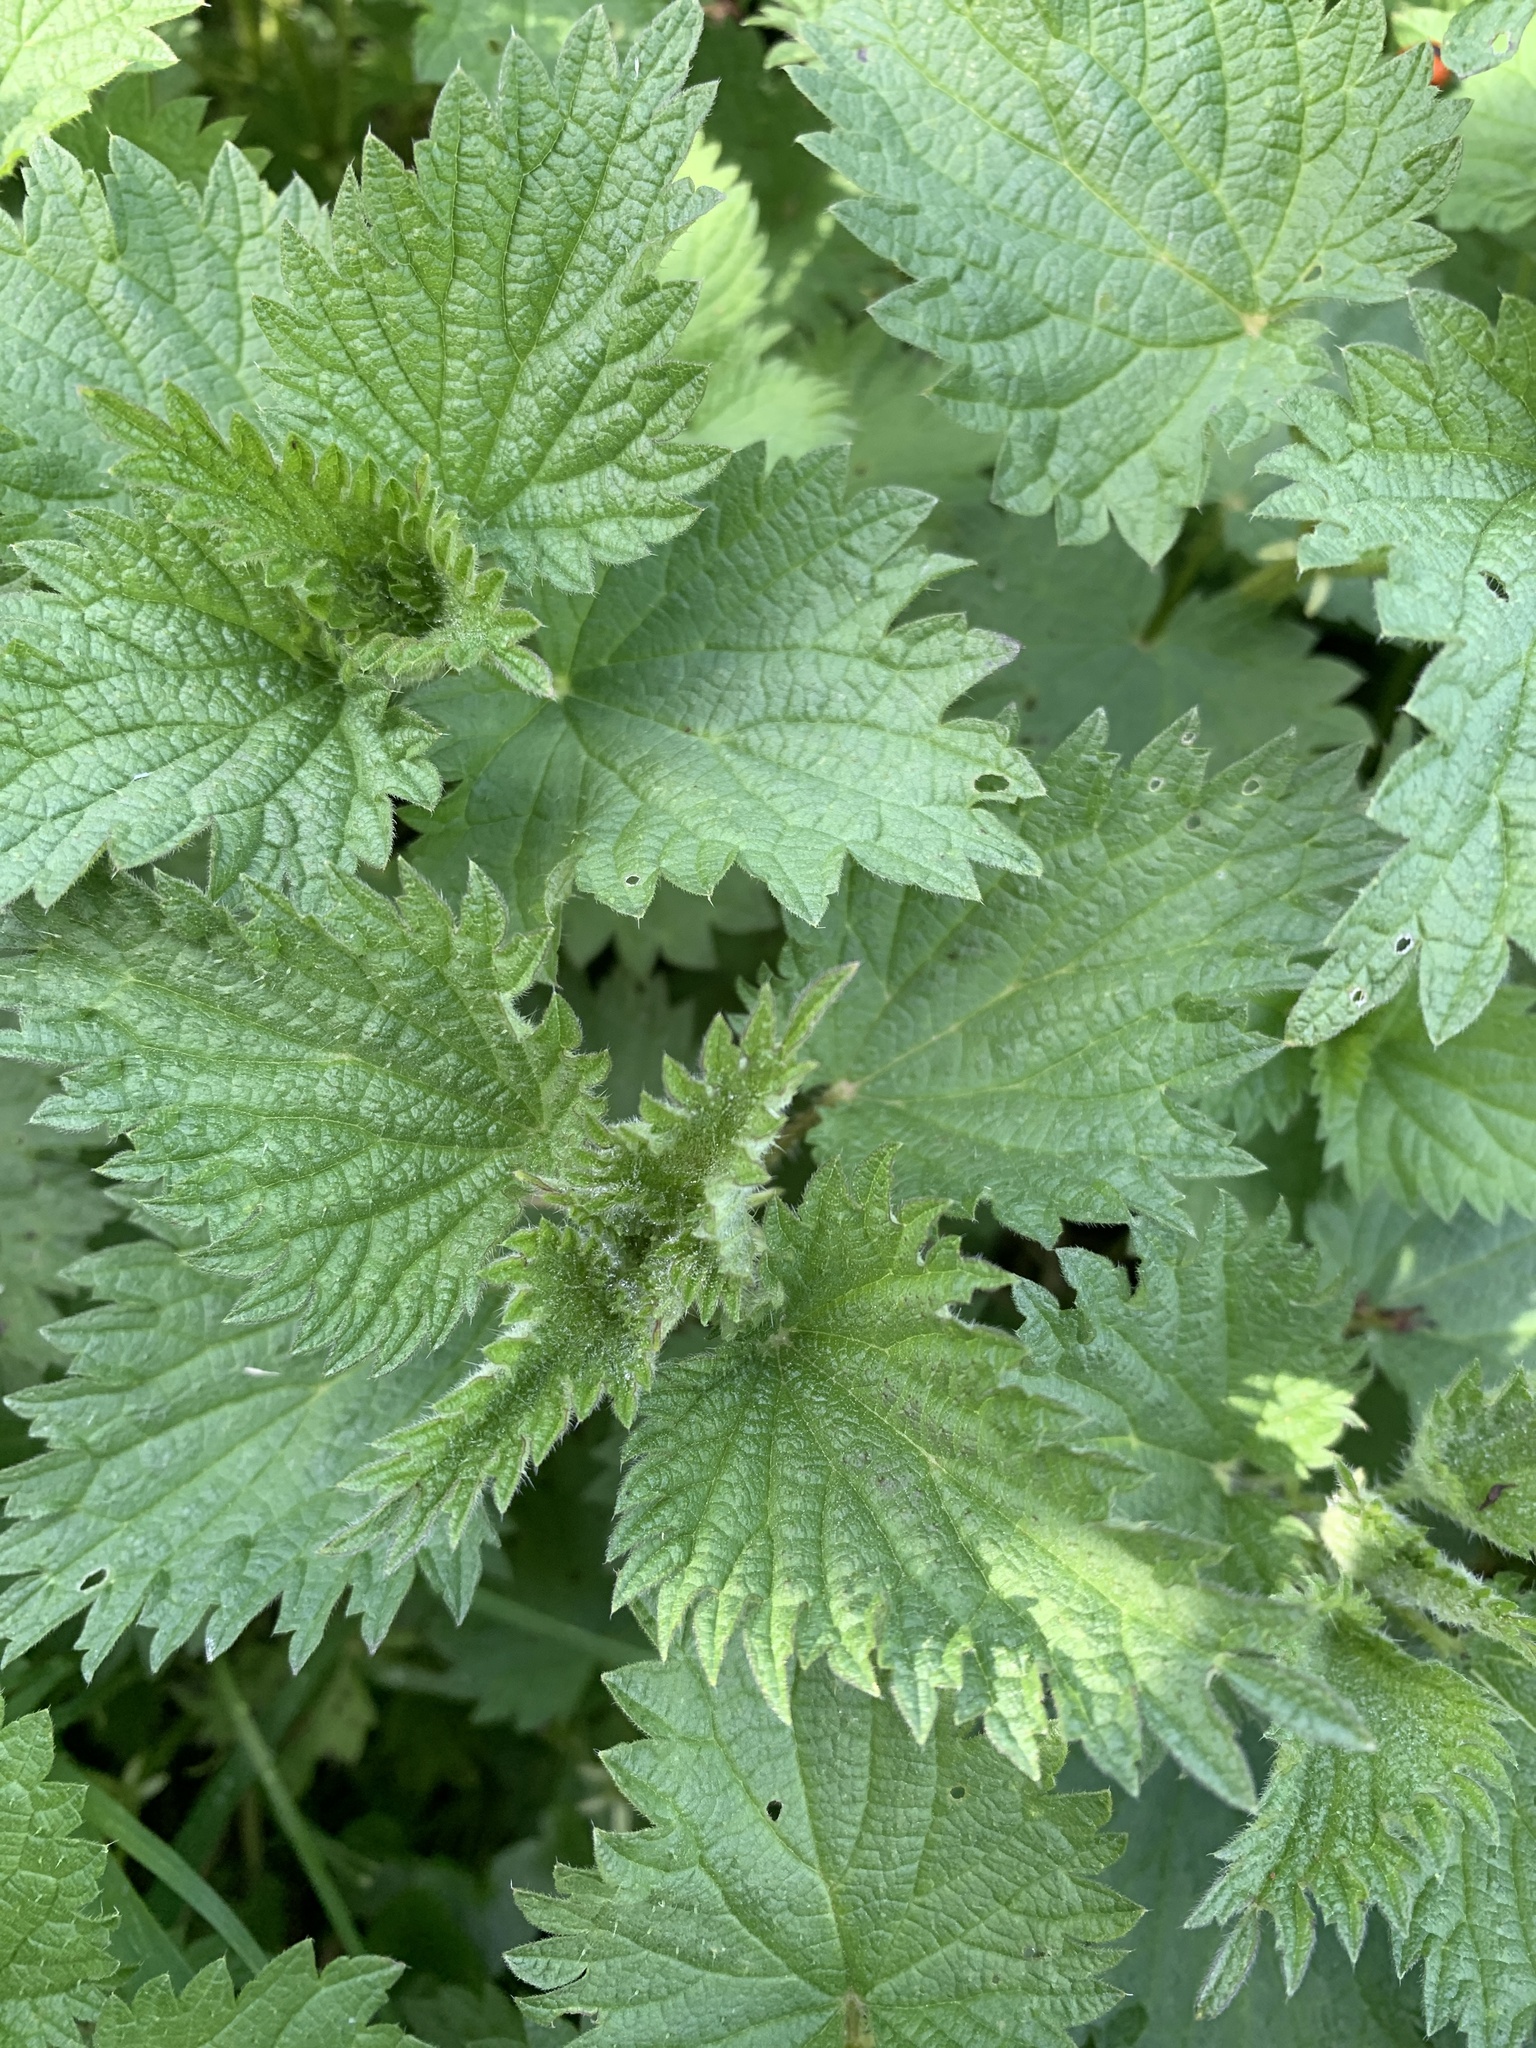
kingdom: Plantae
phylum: Tracheophyta
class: Magnoliopsida
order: Rosales
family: Urticaceae
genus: Urtica
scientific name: Urtica dioica
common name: Common nettle
